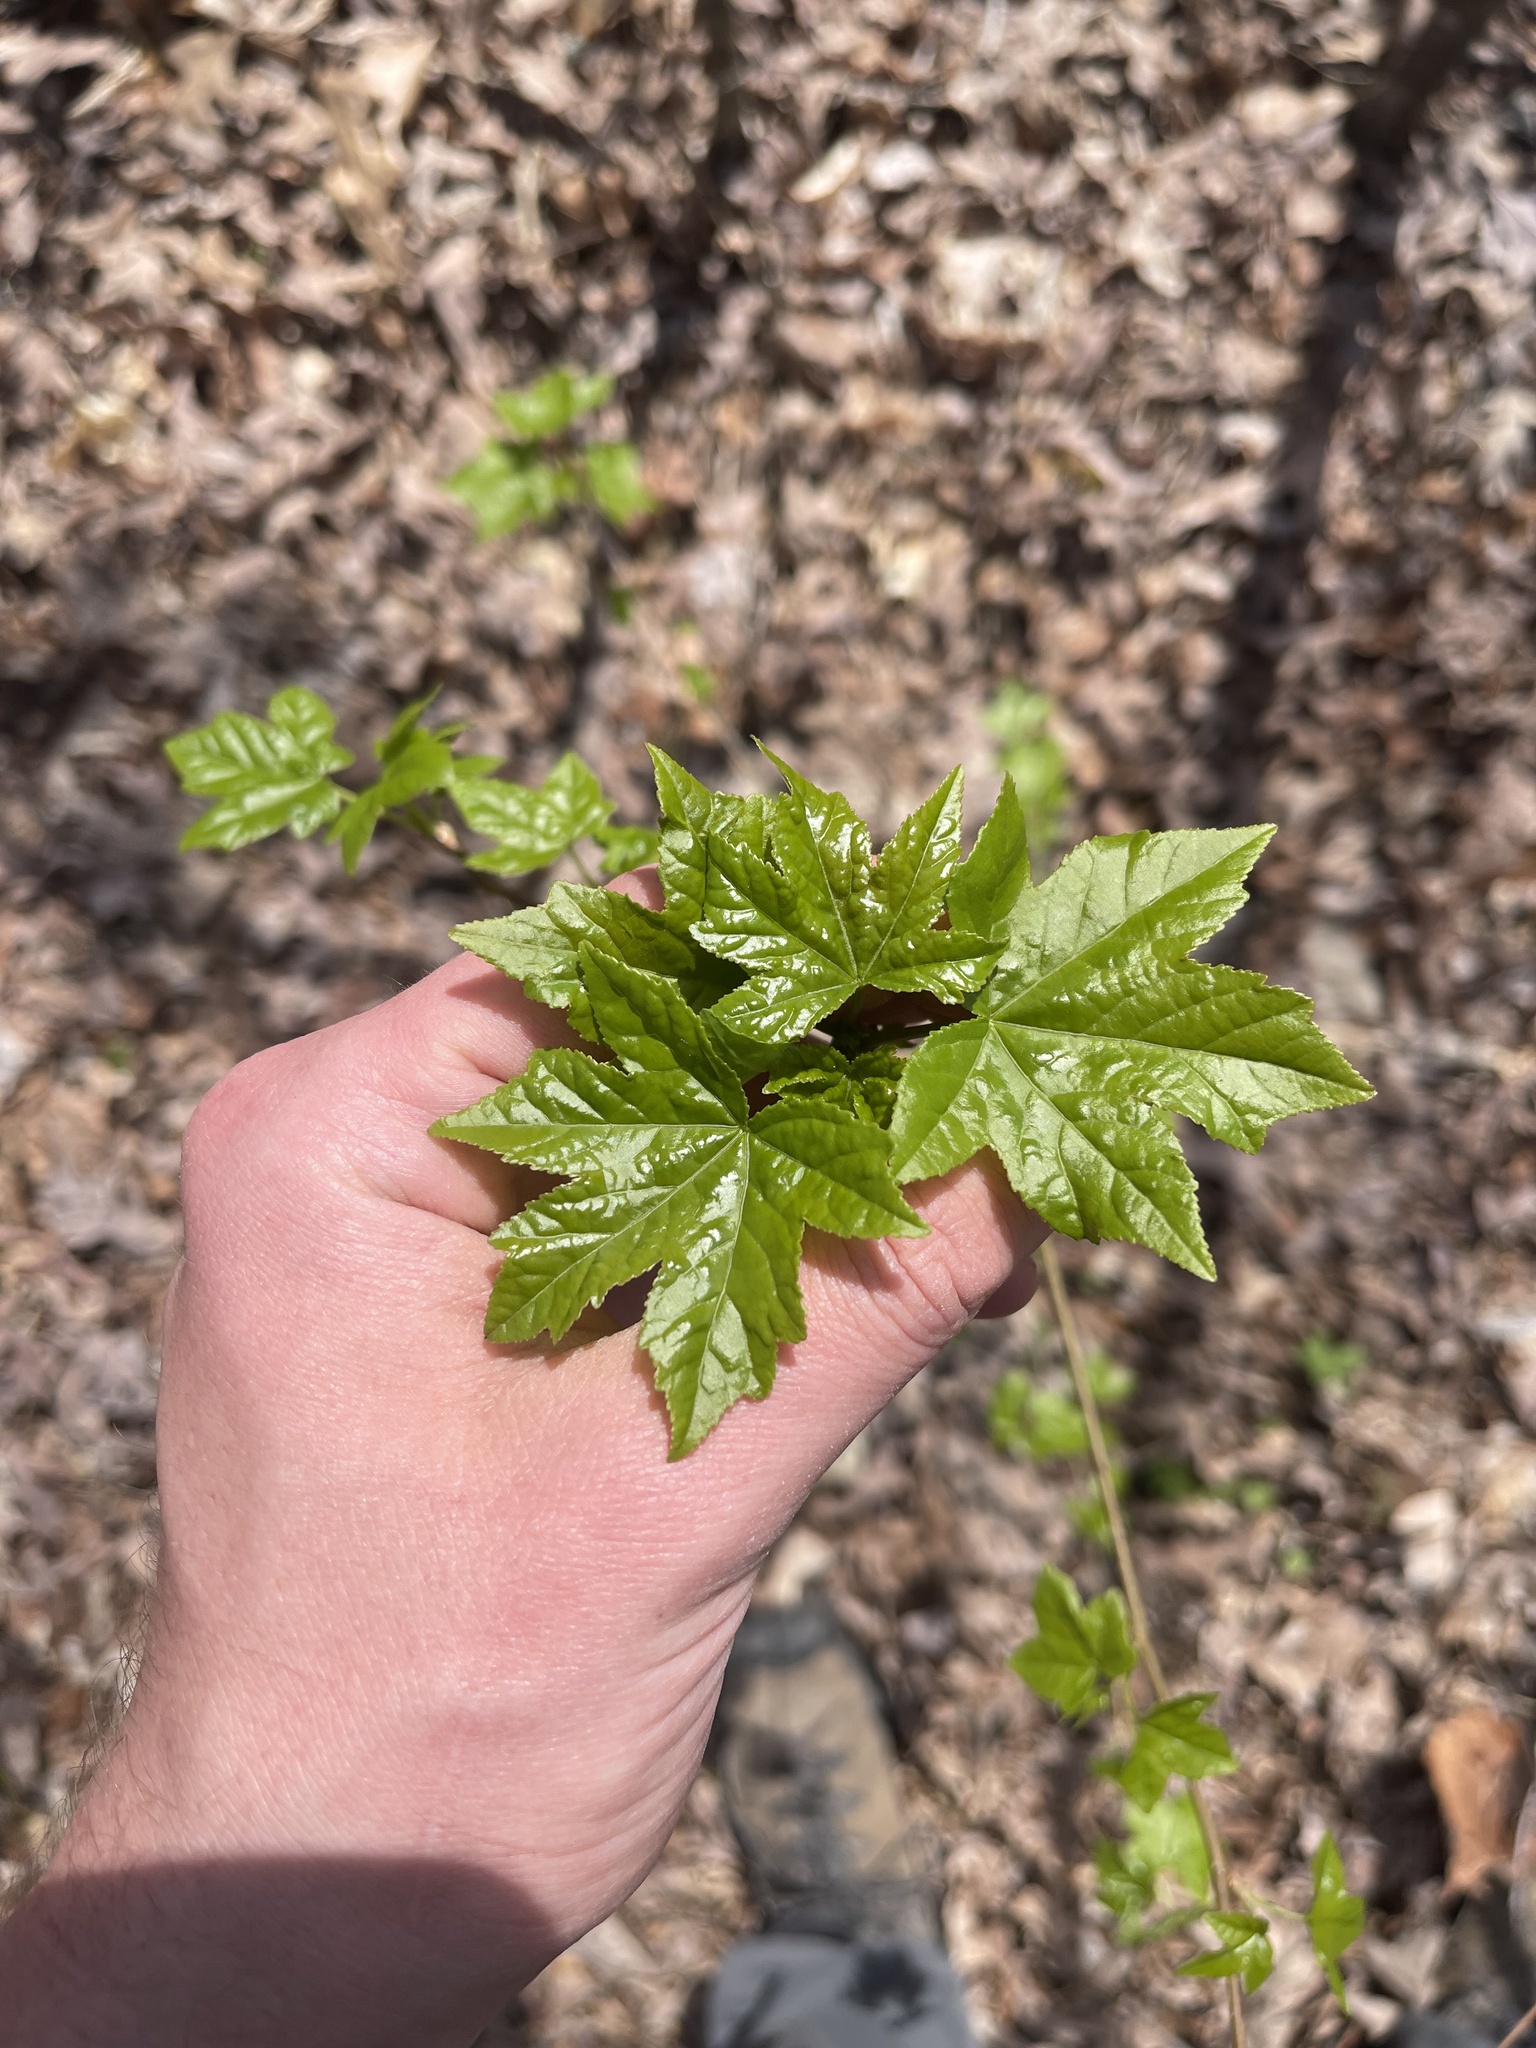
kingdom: Plantae
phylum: Tracheophyta
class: Magnoliopsida
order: Saxifragales
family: Altingiaceae
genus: Liquidambar
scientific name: Liquidambar styraciflua
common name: Sweet gum
